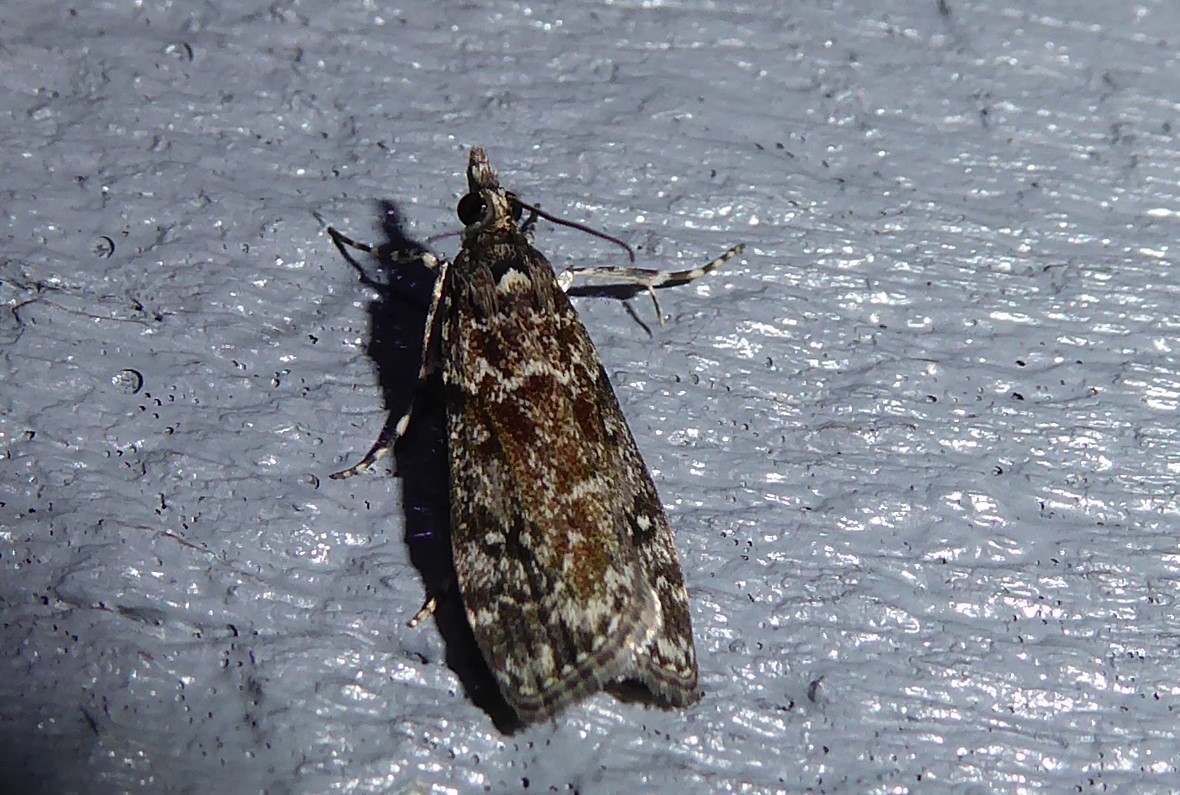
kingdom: Animalia
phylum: Arthropoda
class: Insecta
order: Lepidoptera
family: Crambidae
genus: Eudonia
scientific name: Eudonia philerga
